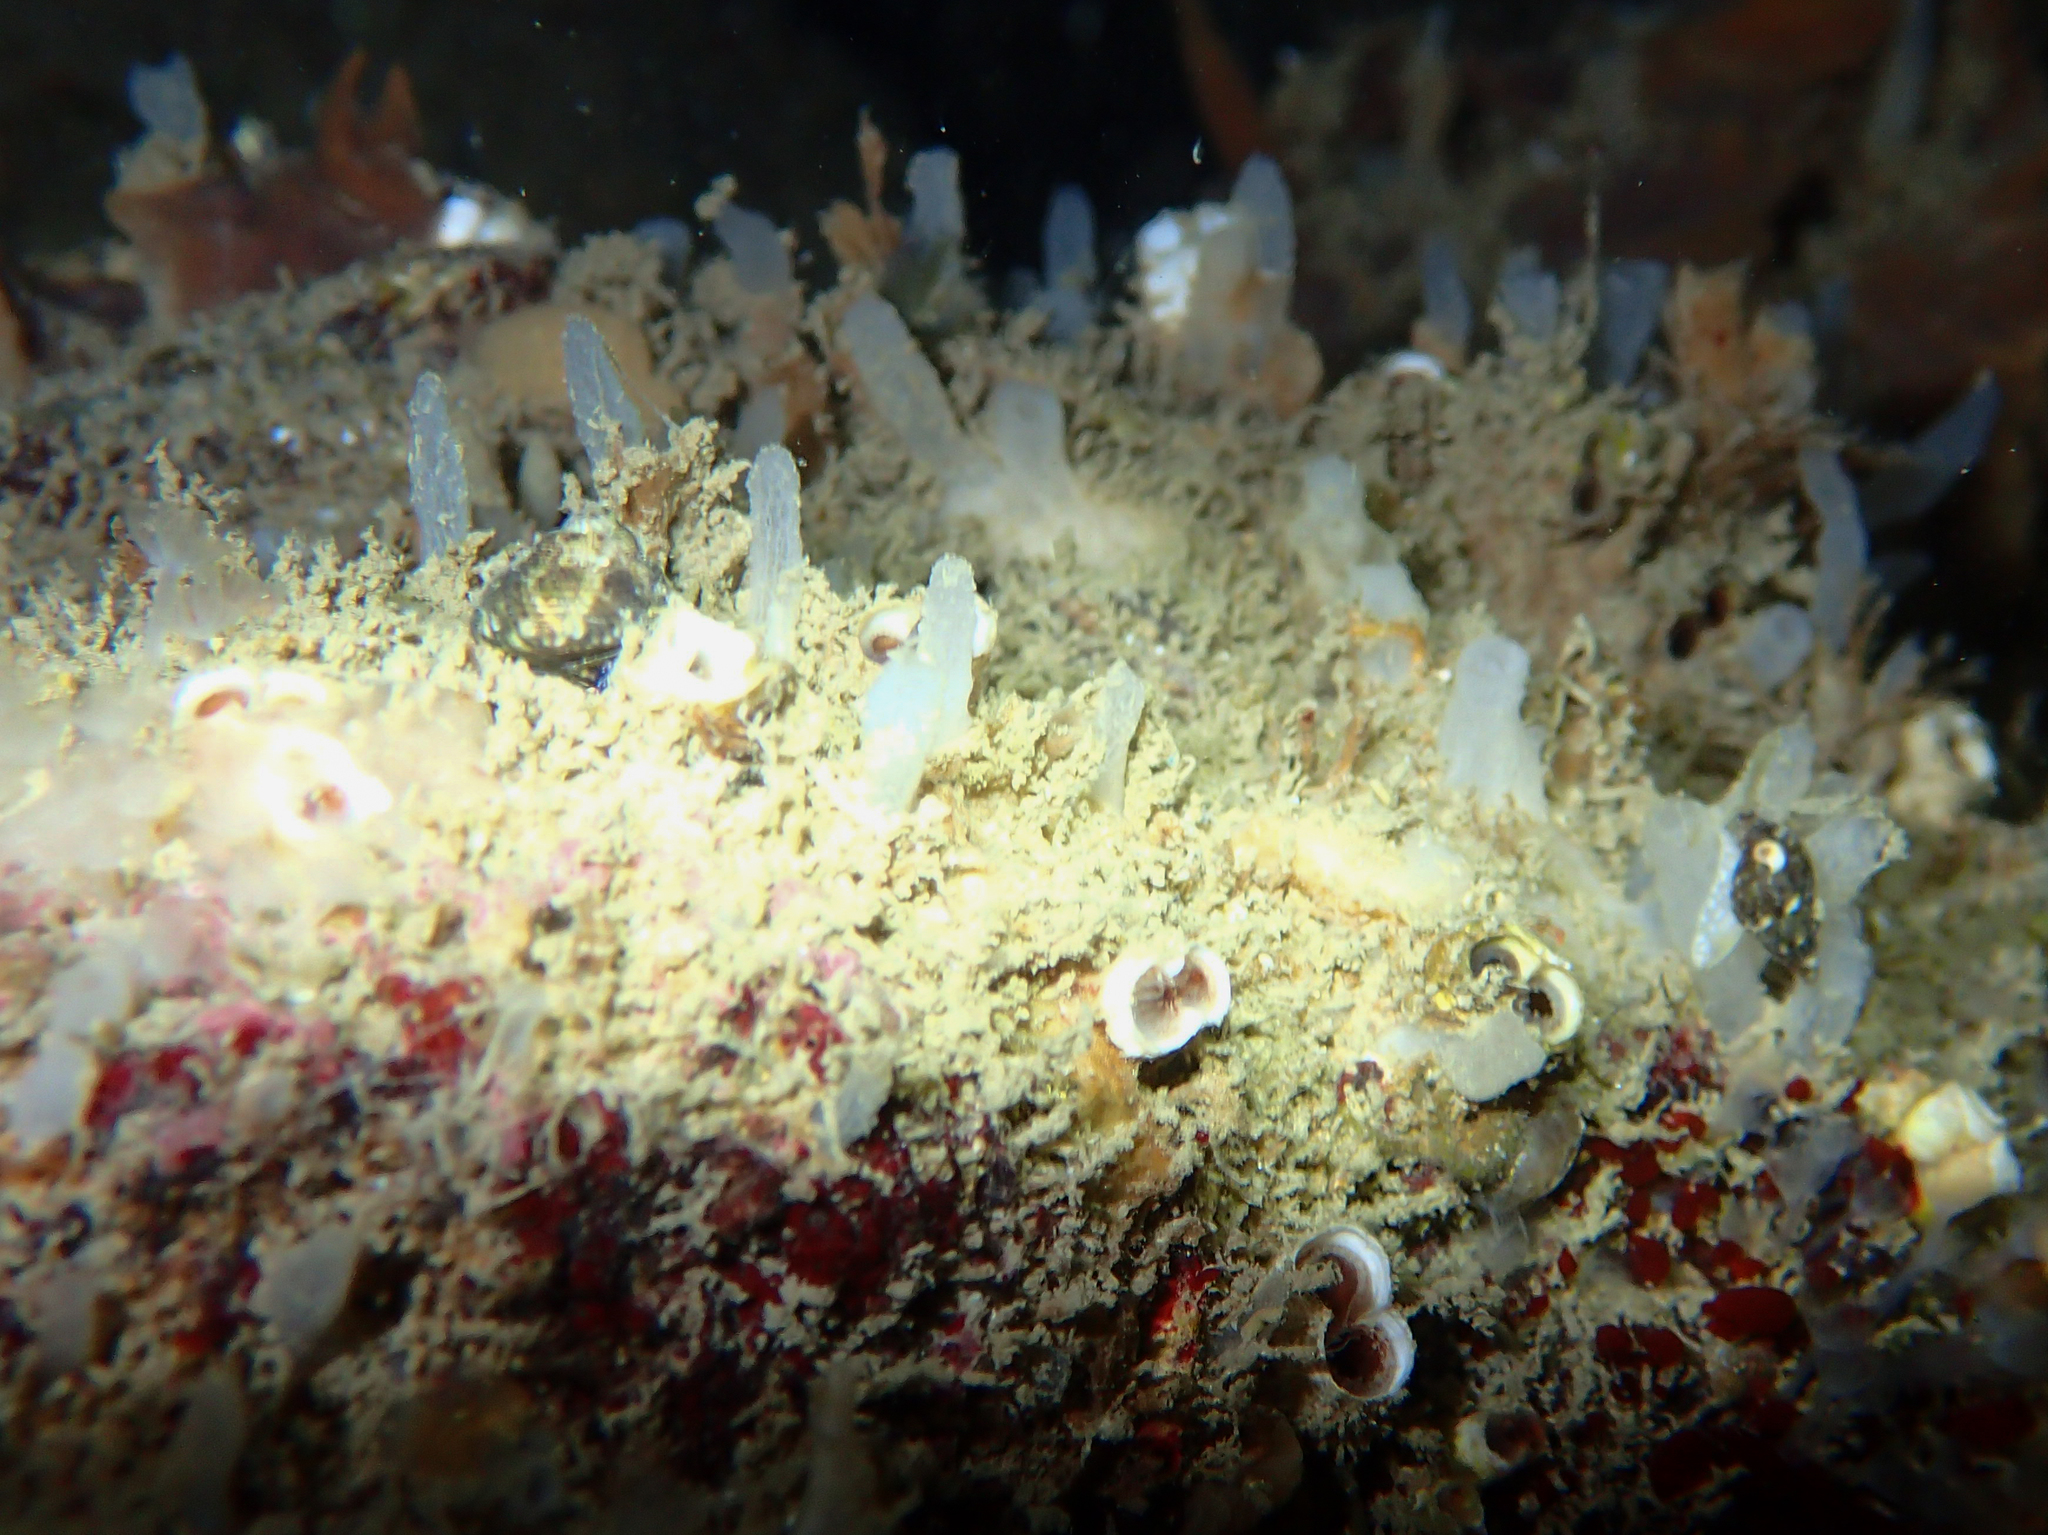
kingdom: Animalia
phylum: Porifera
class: Demospongiae
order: Haplosclerida
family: Phloeodictyidae
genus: Oceanapia
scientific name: Oceanapia isodictyiformis
